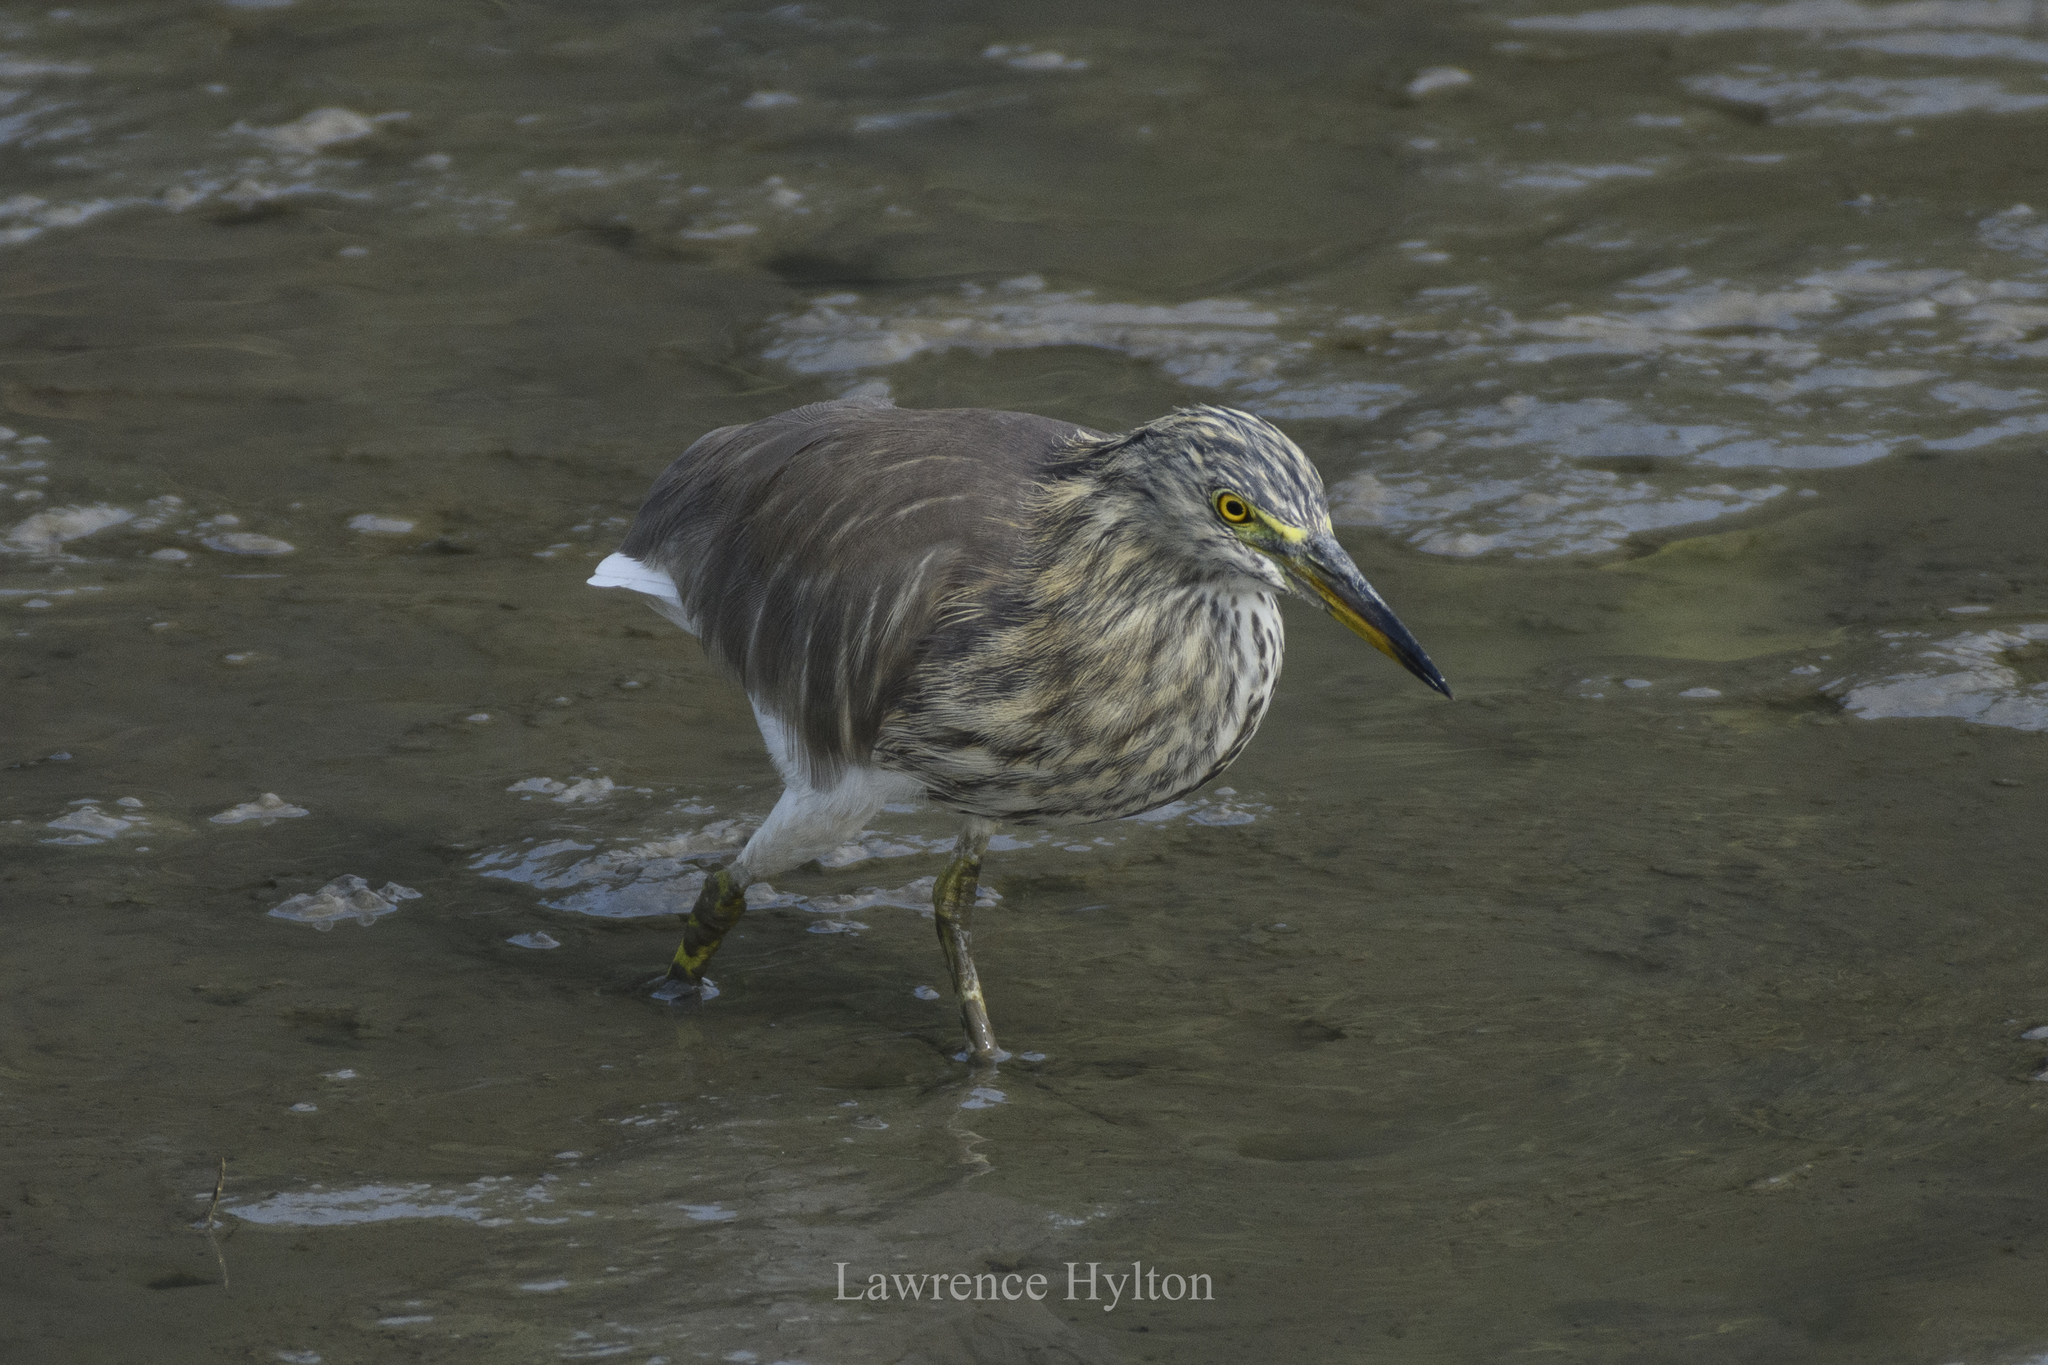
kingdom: Animalia
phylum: Chordata
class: Aves
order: Pelecaniformes
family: Ardeidae
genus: Ardeola
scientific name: Ardeola bacchus
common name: Chinese pond heron
